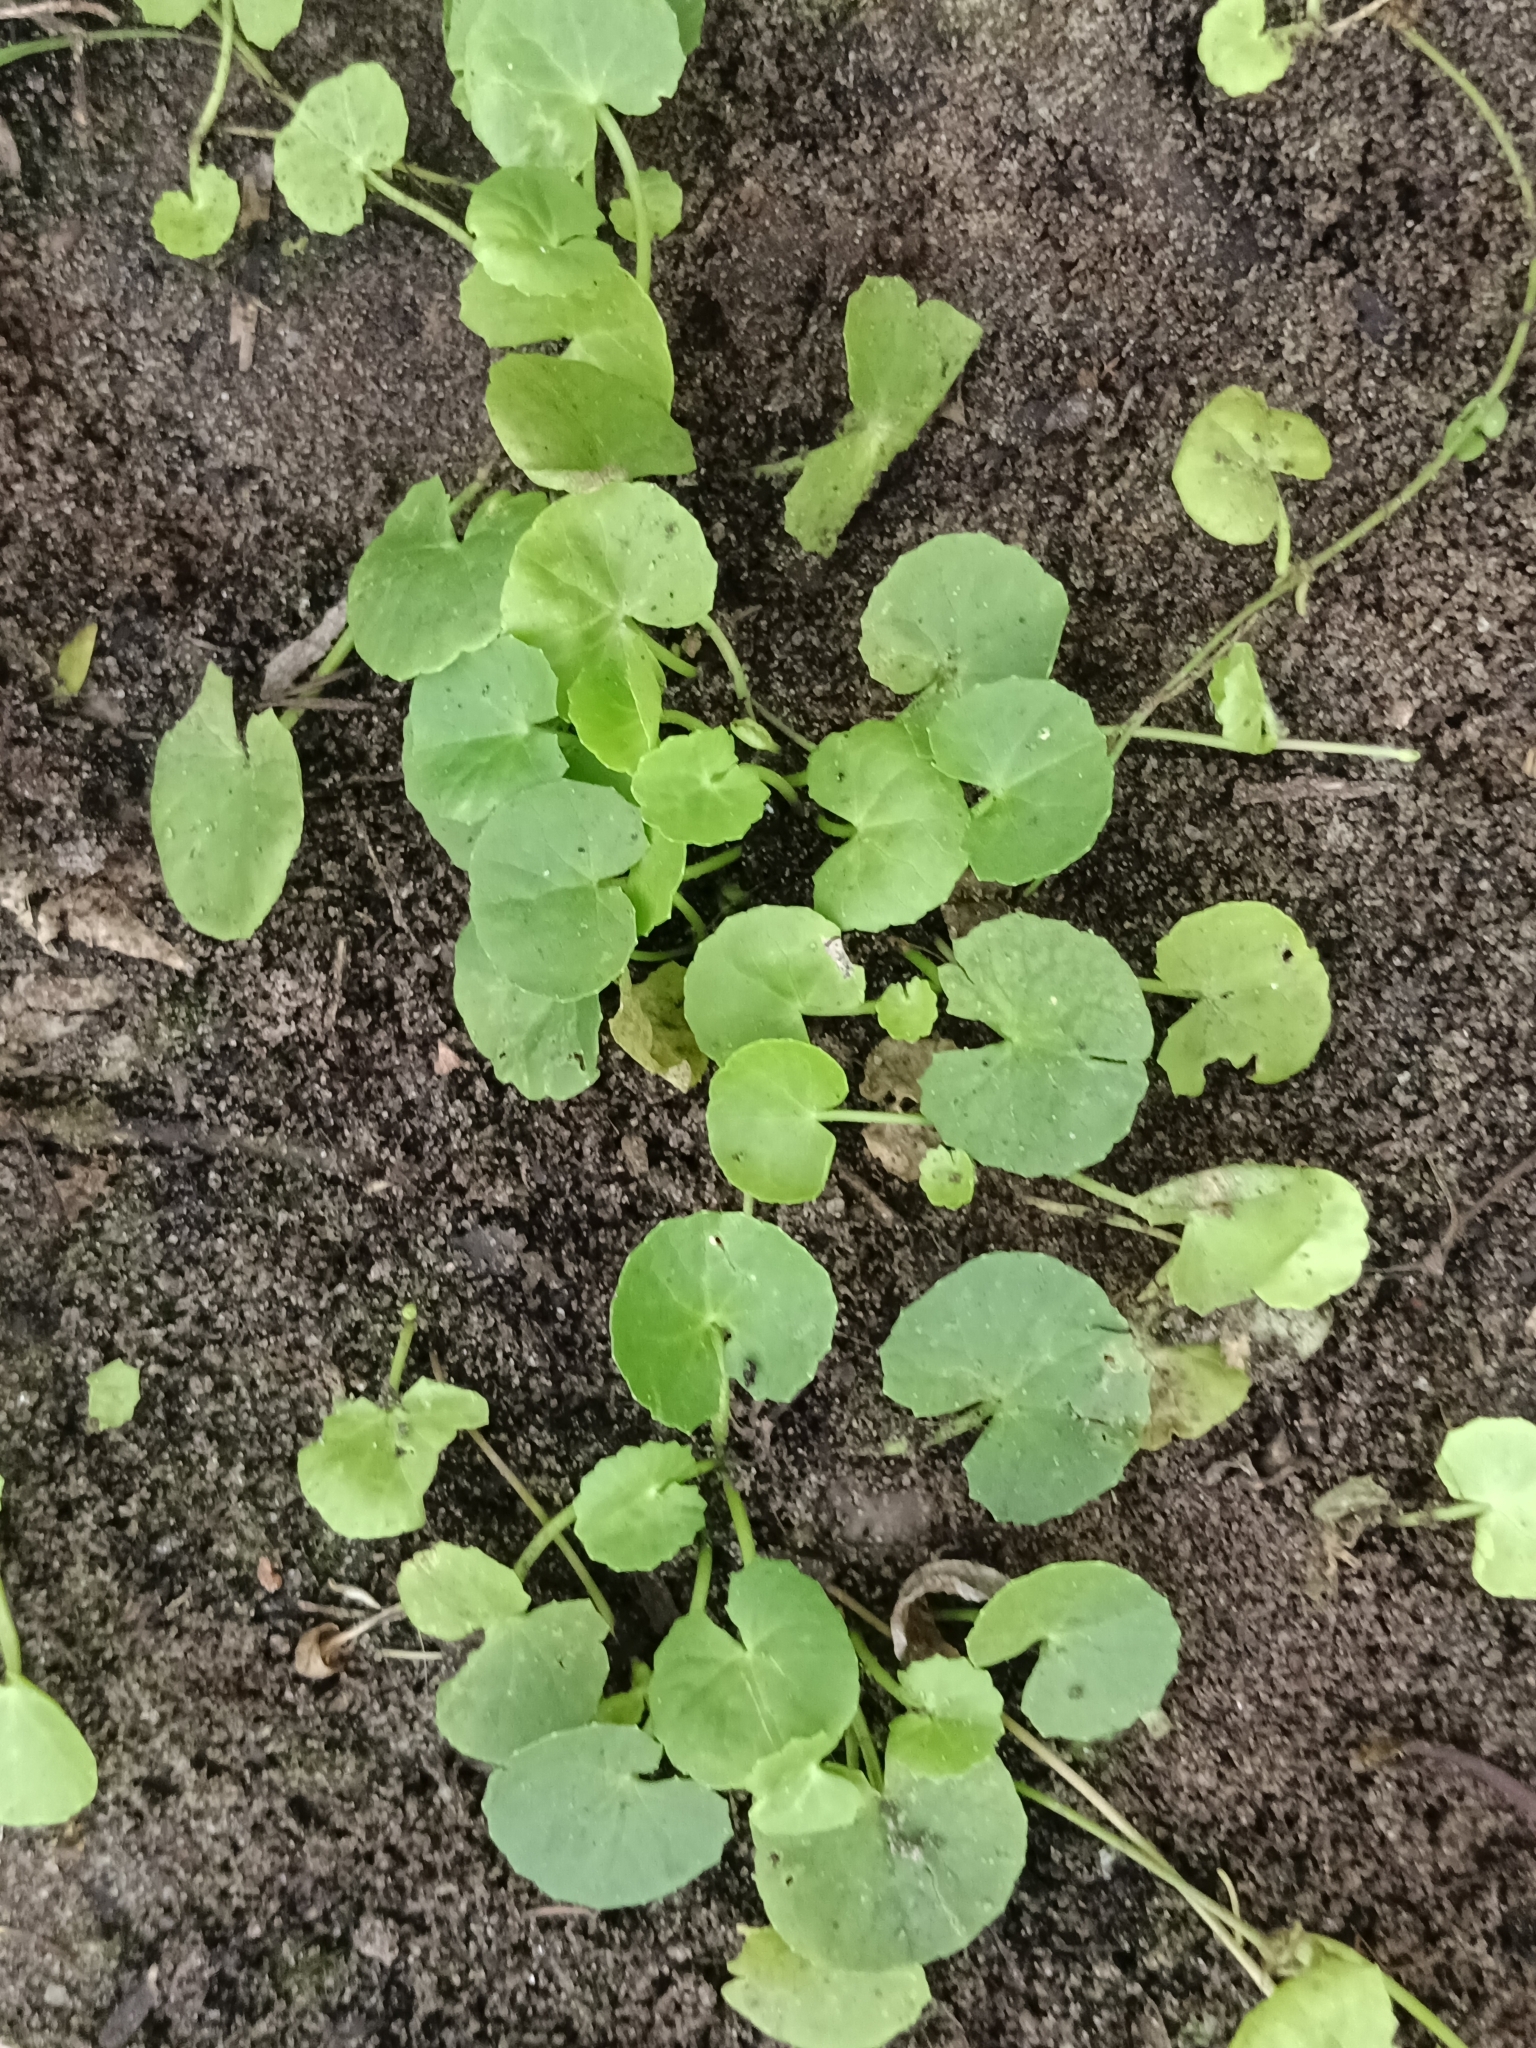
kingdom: Plantae
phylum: Tracheophyta
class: Magnoliopsida
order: Apiales
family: Apiaceae
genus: Centella
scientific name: Centella asiatica
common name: Spadeleaf
